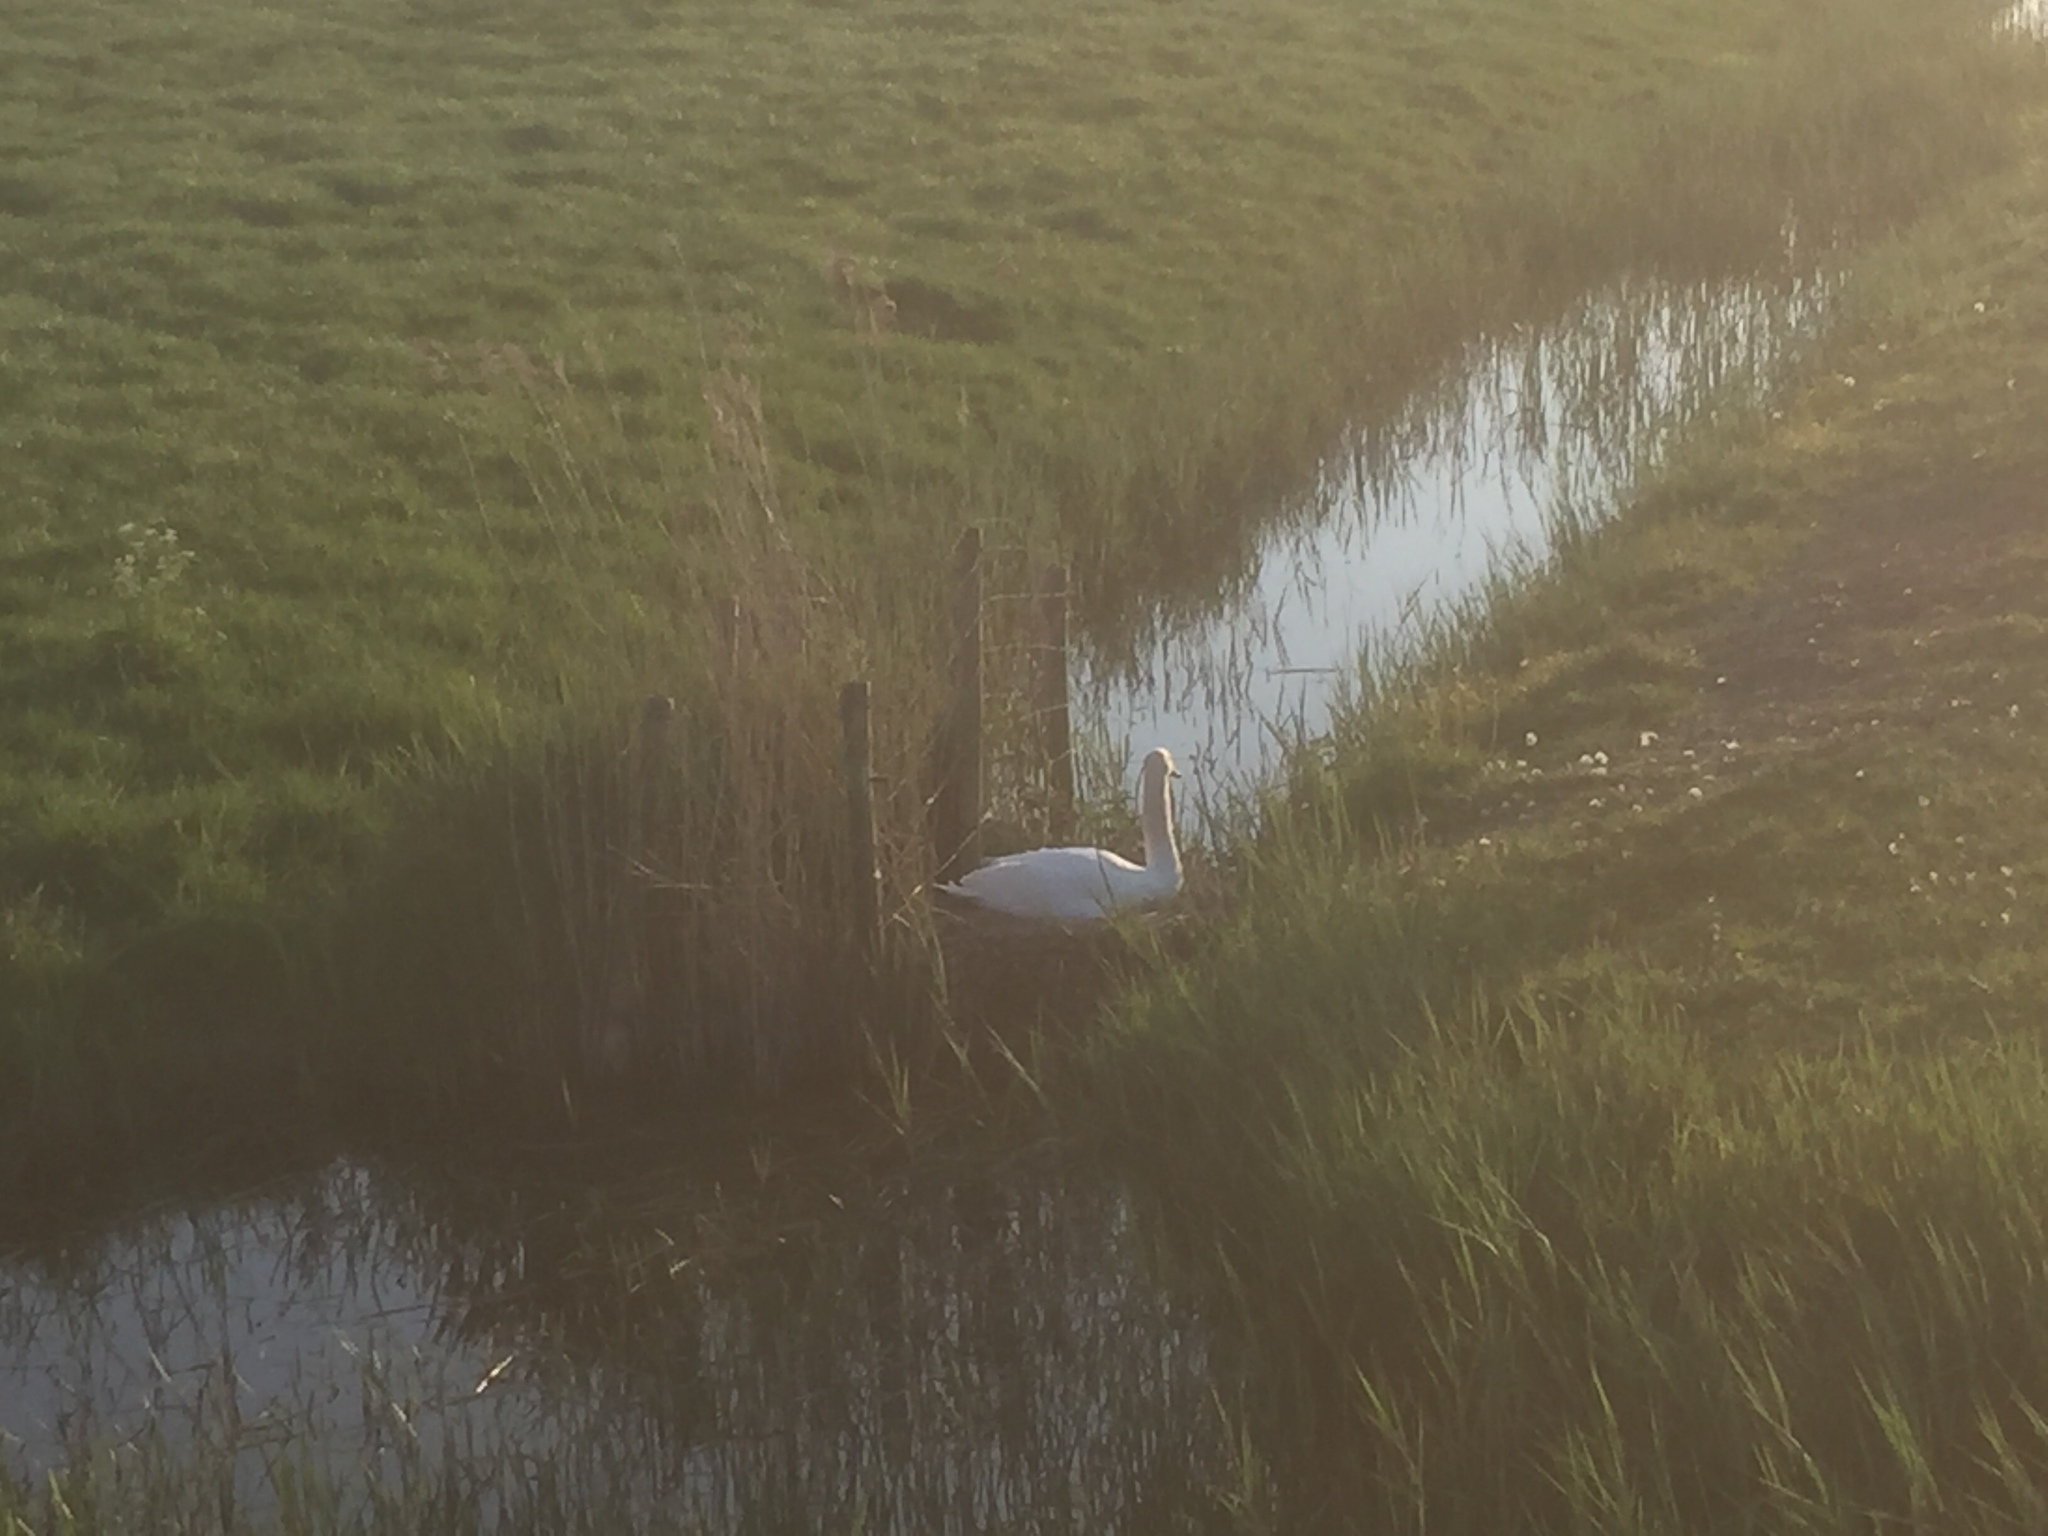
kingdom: Animalia
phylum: Chordata
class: Aves
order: Anseriformes
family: Anatidae
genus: Cygnus
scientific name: Cygnus olor
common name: Mute swan
